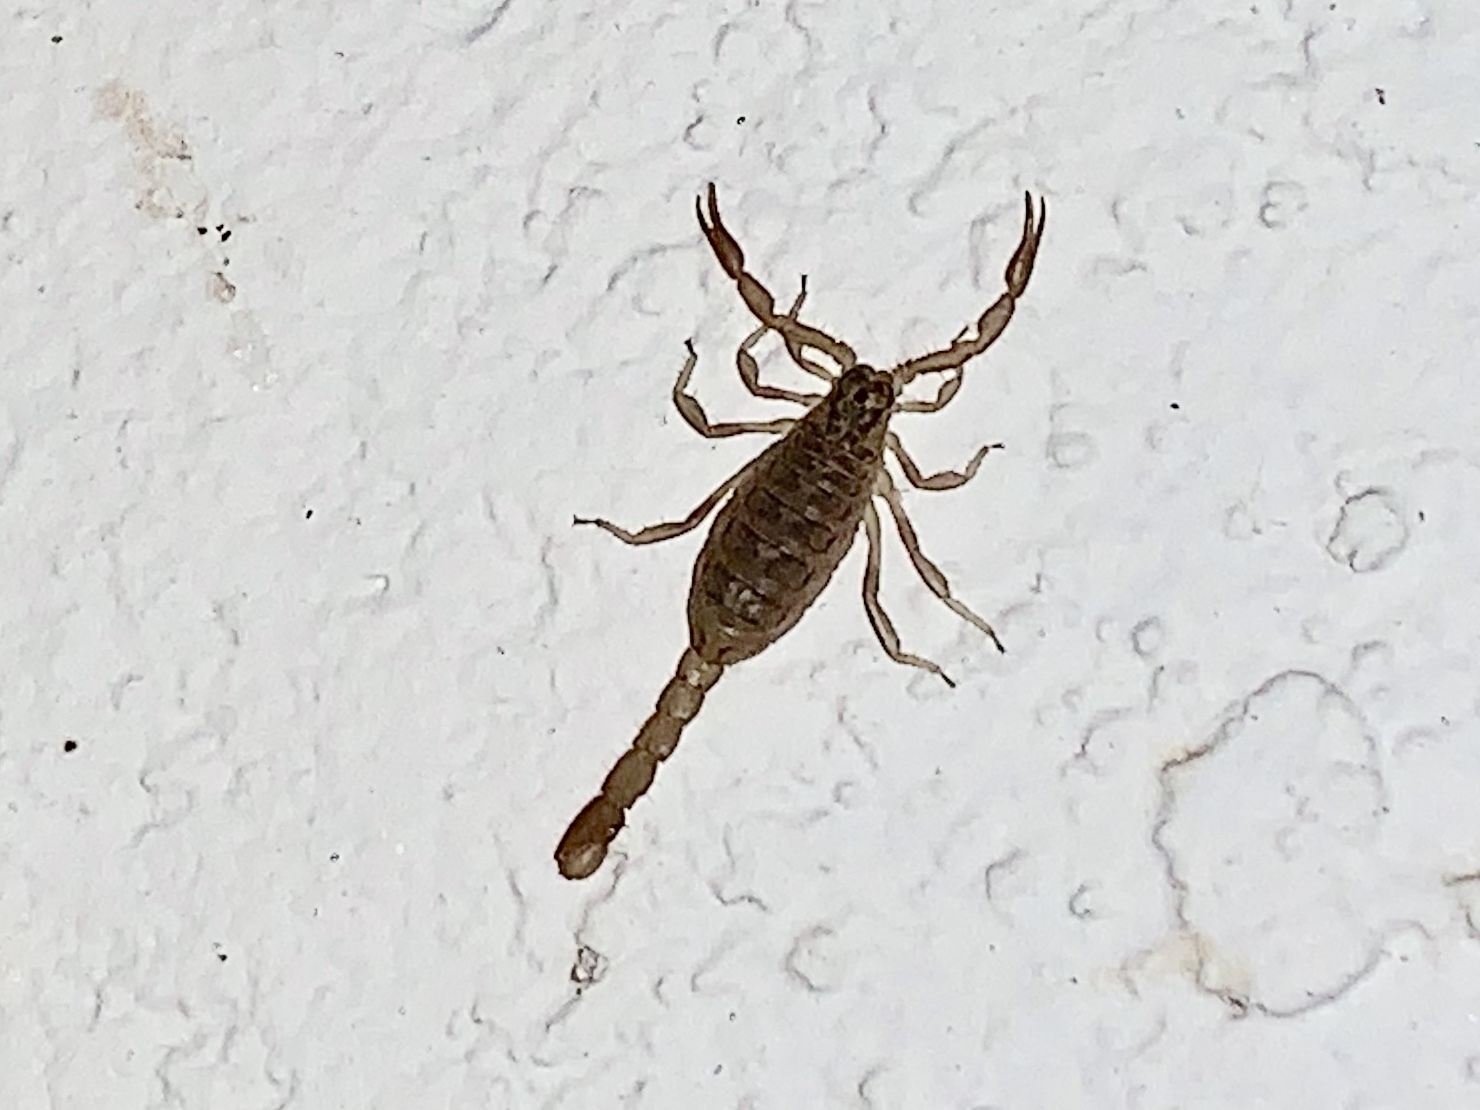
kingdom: Animalia
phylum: Arthropoda
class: Arachnida
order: Scorpiones
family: Vaejovidae
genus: Vaejovis
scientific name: Vaejovis vorhiesi
